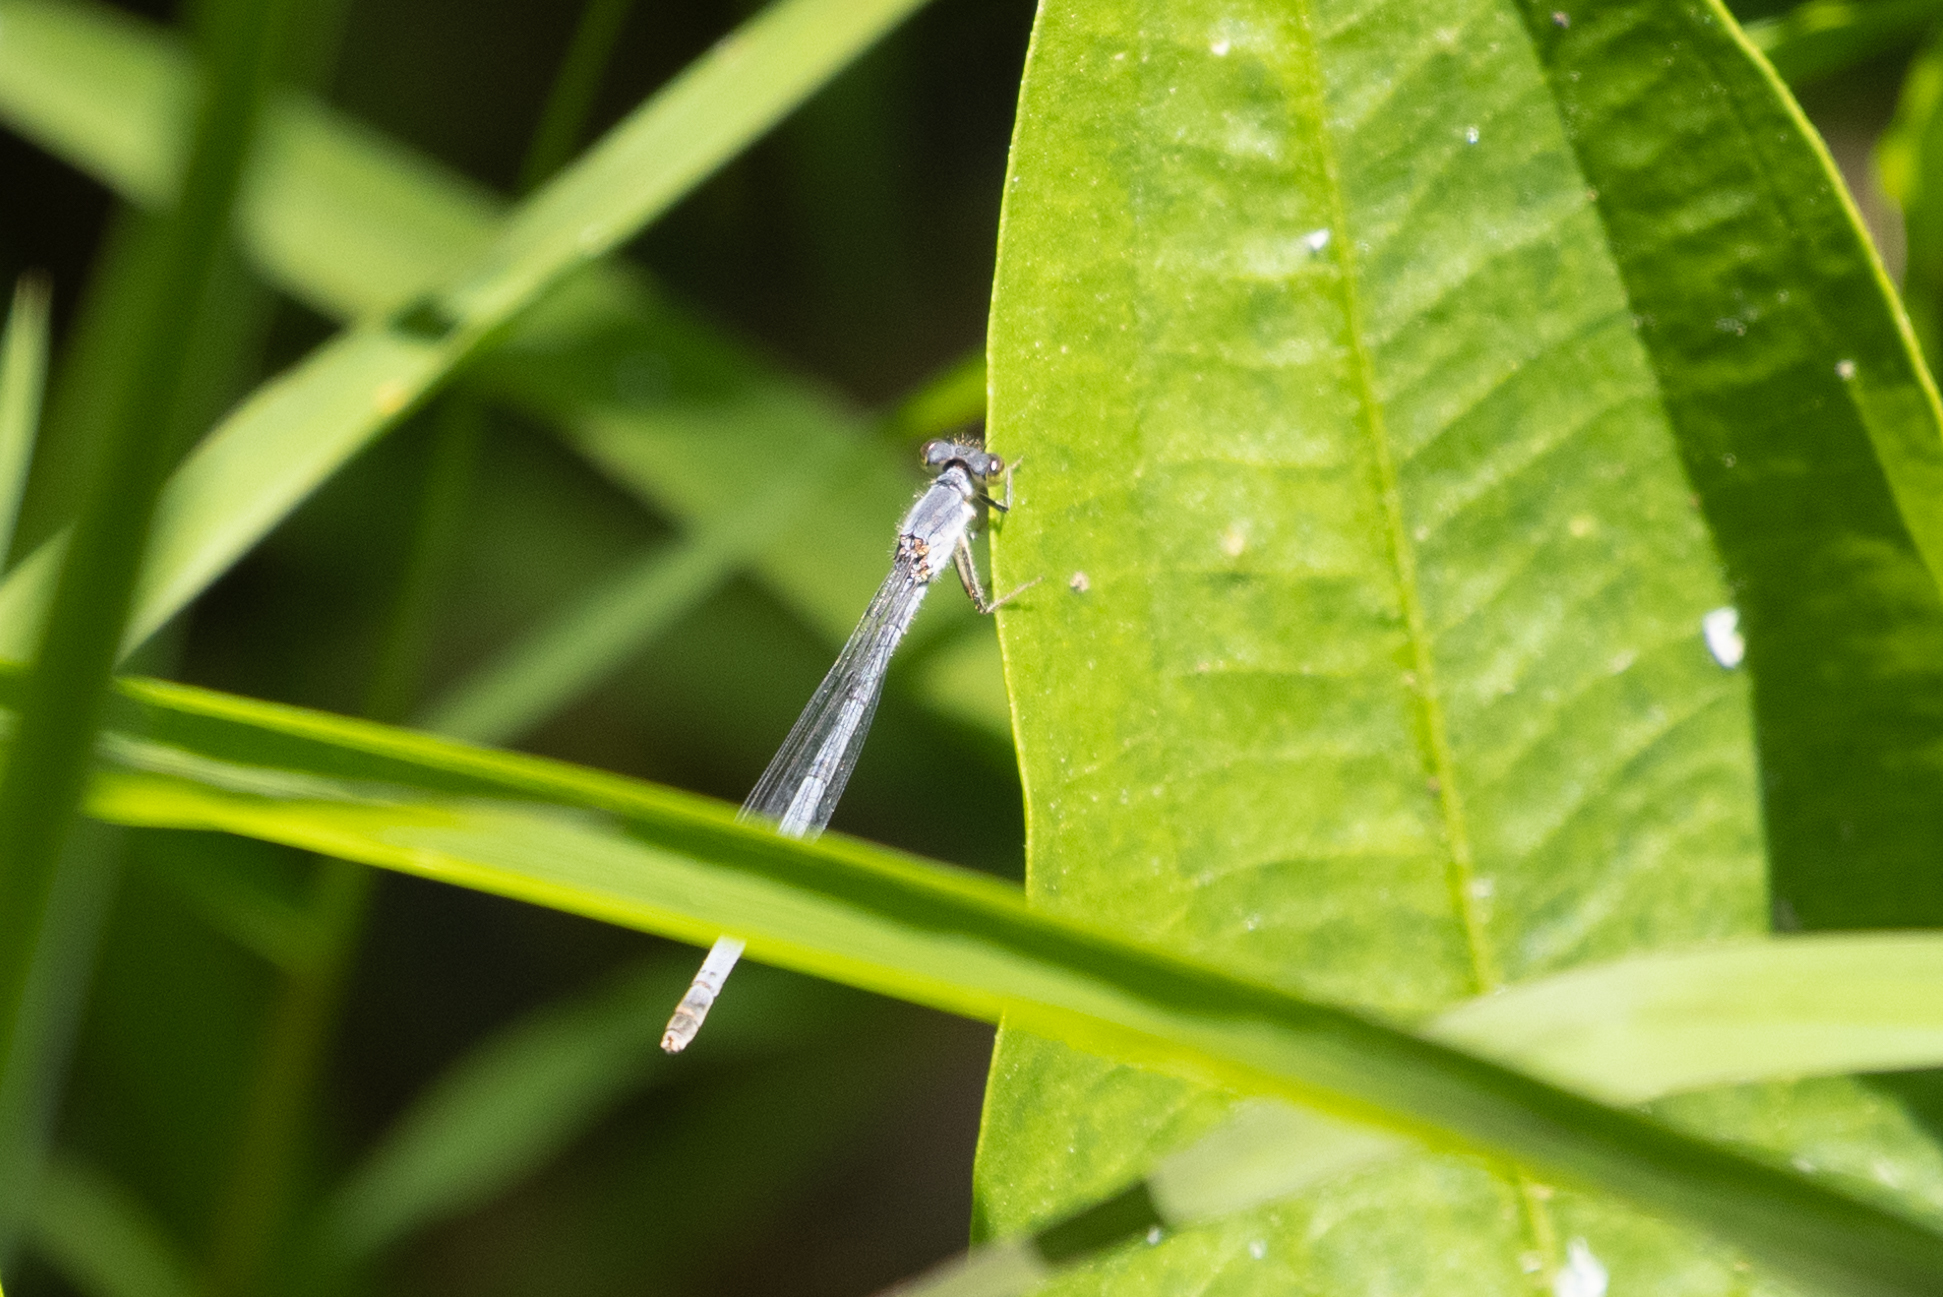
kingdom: Animalia
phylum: Arthropoda
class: Insecta
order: Odonata
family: Coenagrionidae
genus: Ischnura
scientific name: Ischnura posita
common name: Fragile forktail
